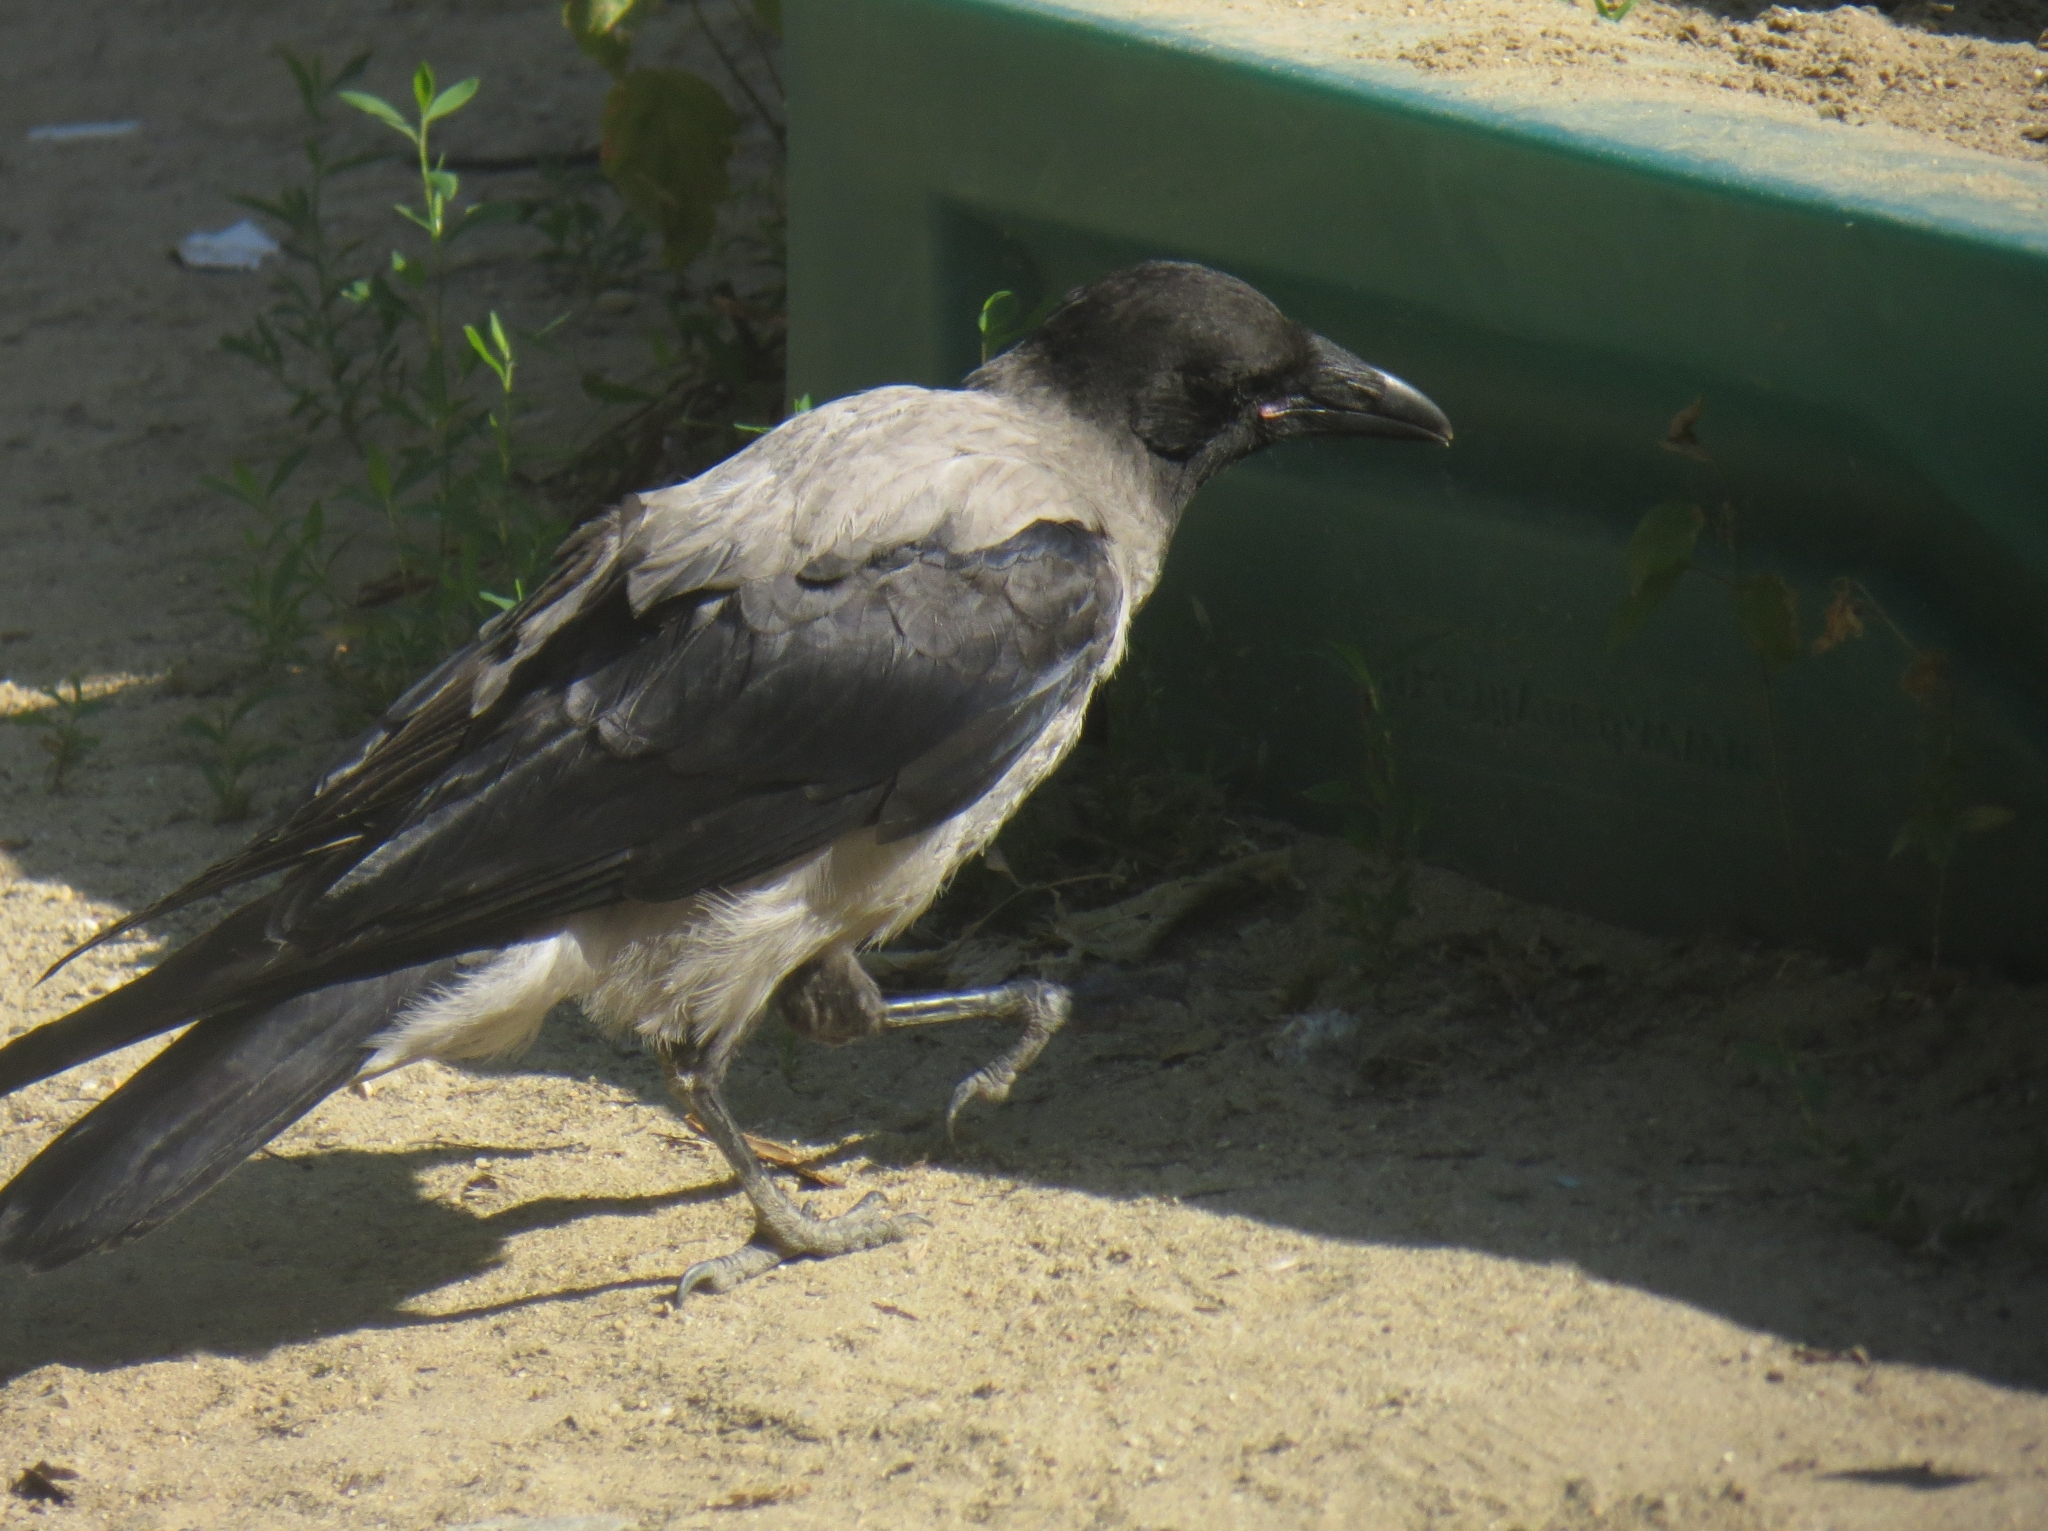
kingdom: Animalia
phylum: Chordata
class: Aves
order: Passeriformes
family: Corvidae
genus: Corvus
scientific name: Corvus cornix
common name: Hooded crow
